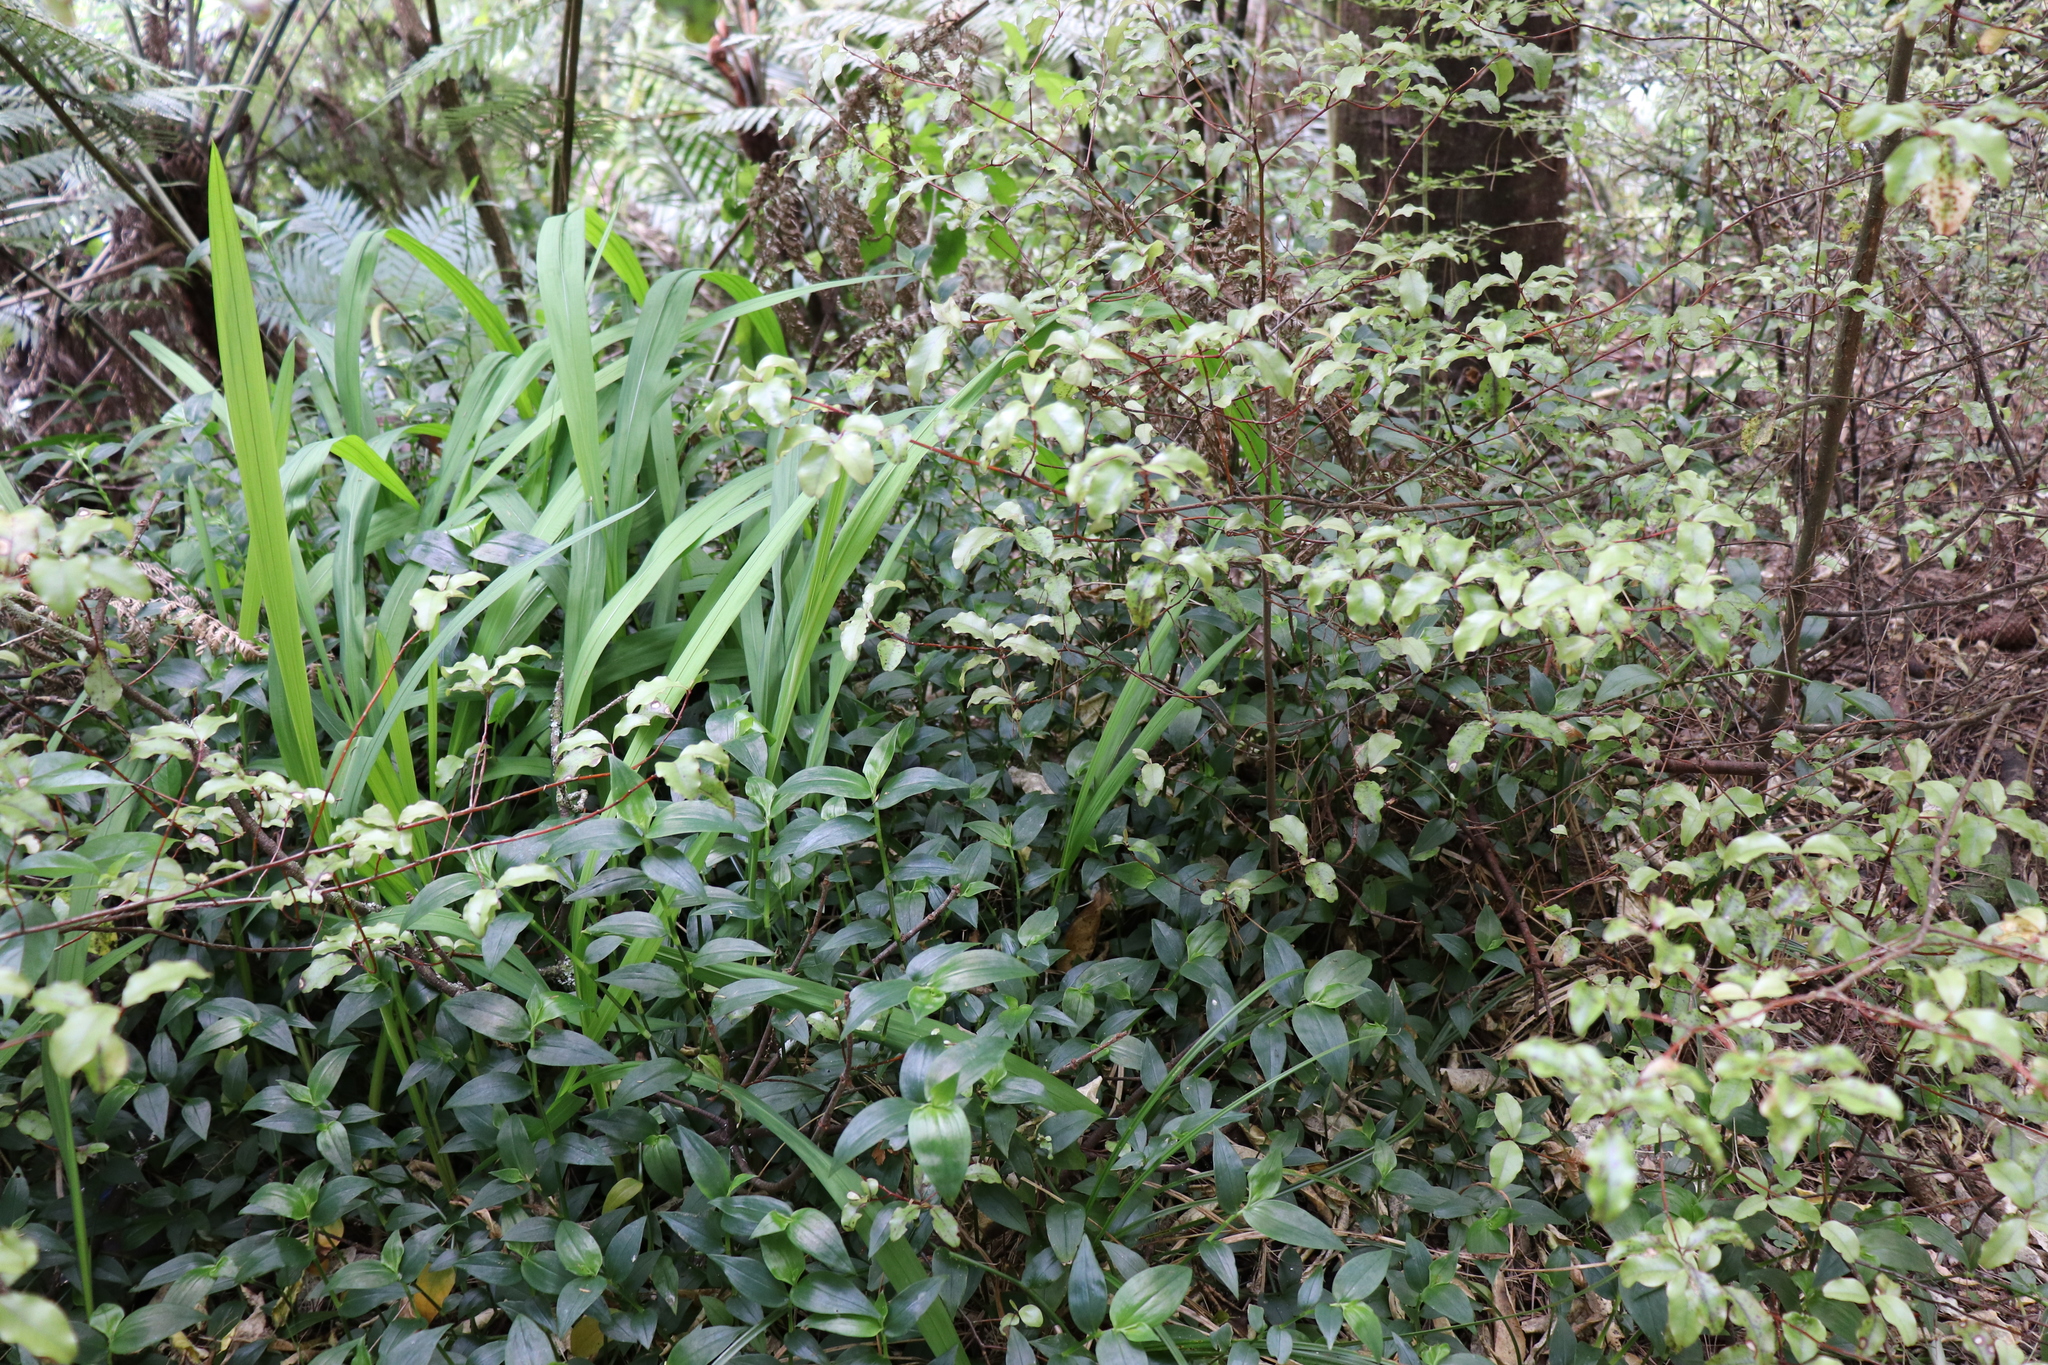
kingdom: Plantae
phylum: Tracheophyta
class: Liliopsida
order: Commelinales
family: Commelinaceae
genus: Tradescantia
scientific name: Tradescantia fluminensis
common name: Wandering-jew
